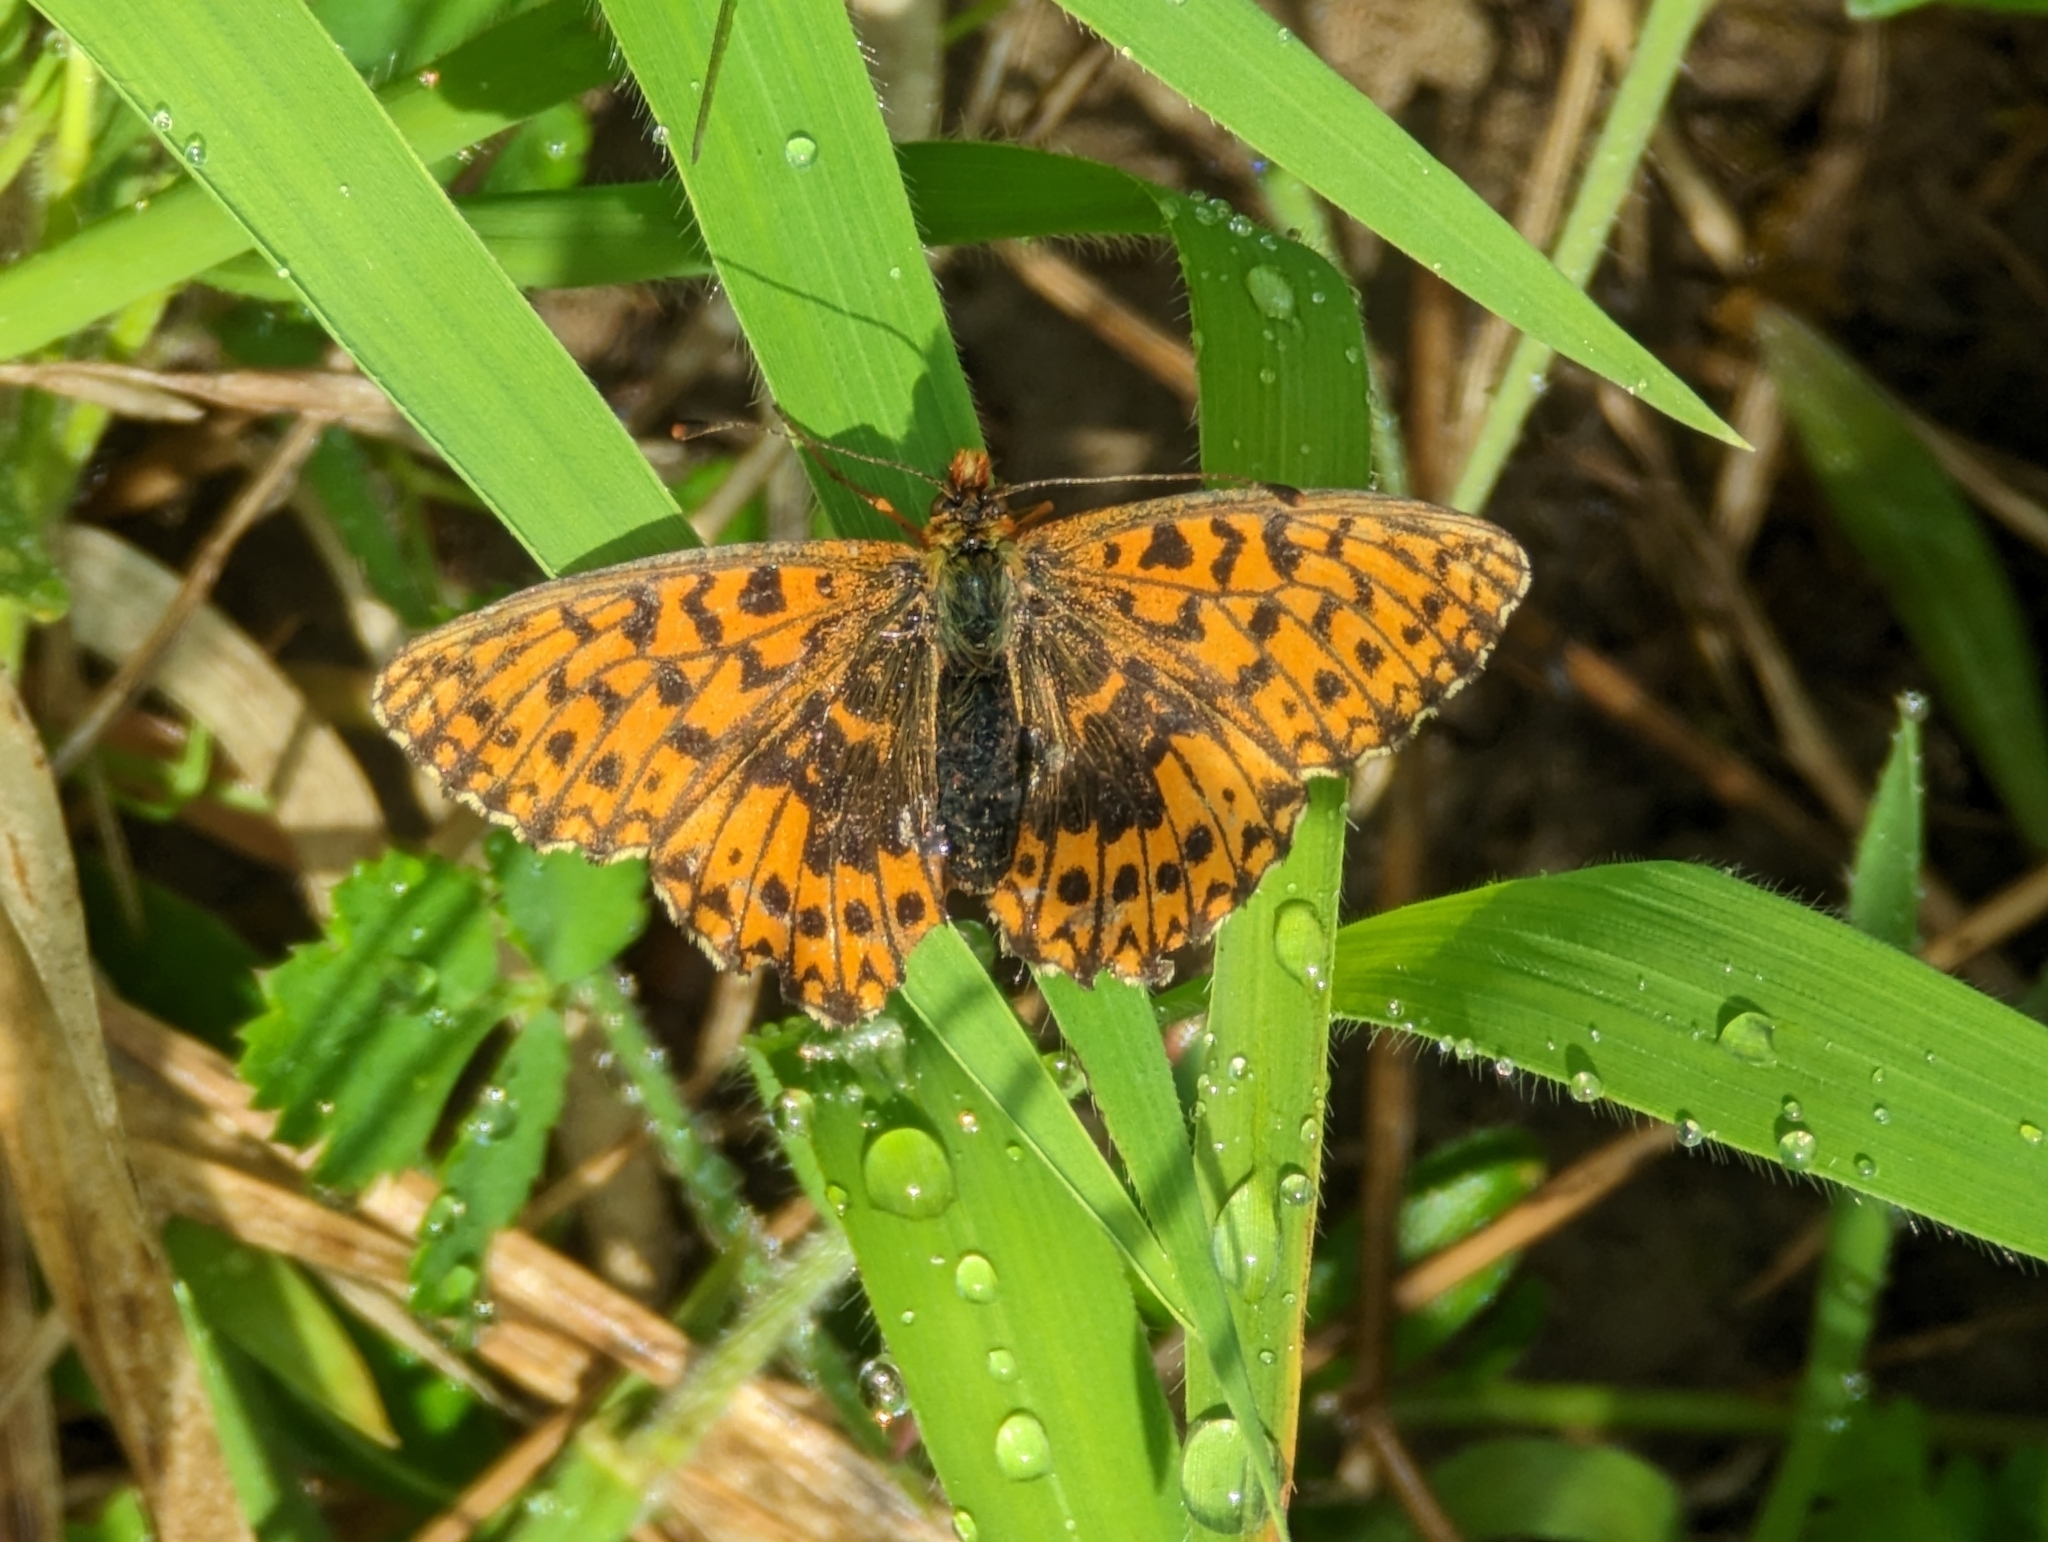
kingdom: Animalia
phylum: Arthropoda
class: Insecta
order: Lepidoptera
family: Nymphalidae
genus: Boloria
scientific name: Boloria dia
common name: Weaver's fritillary
